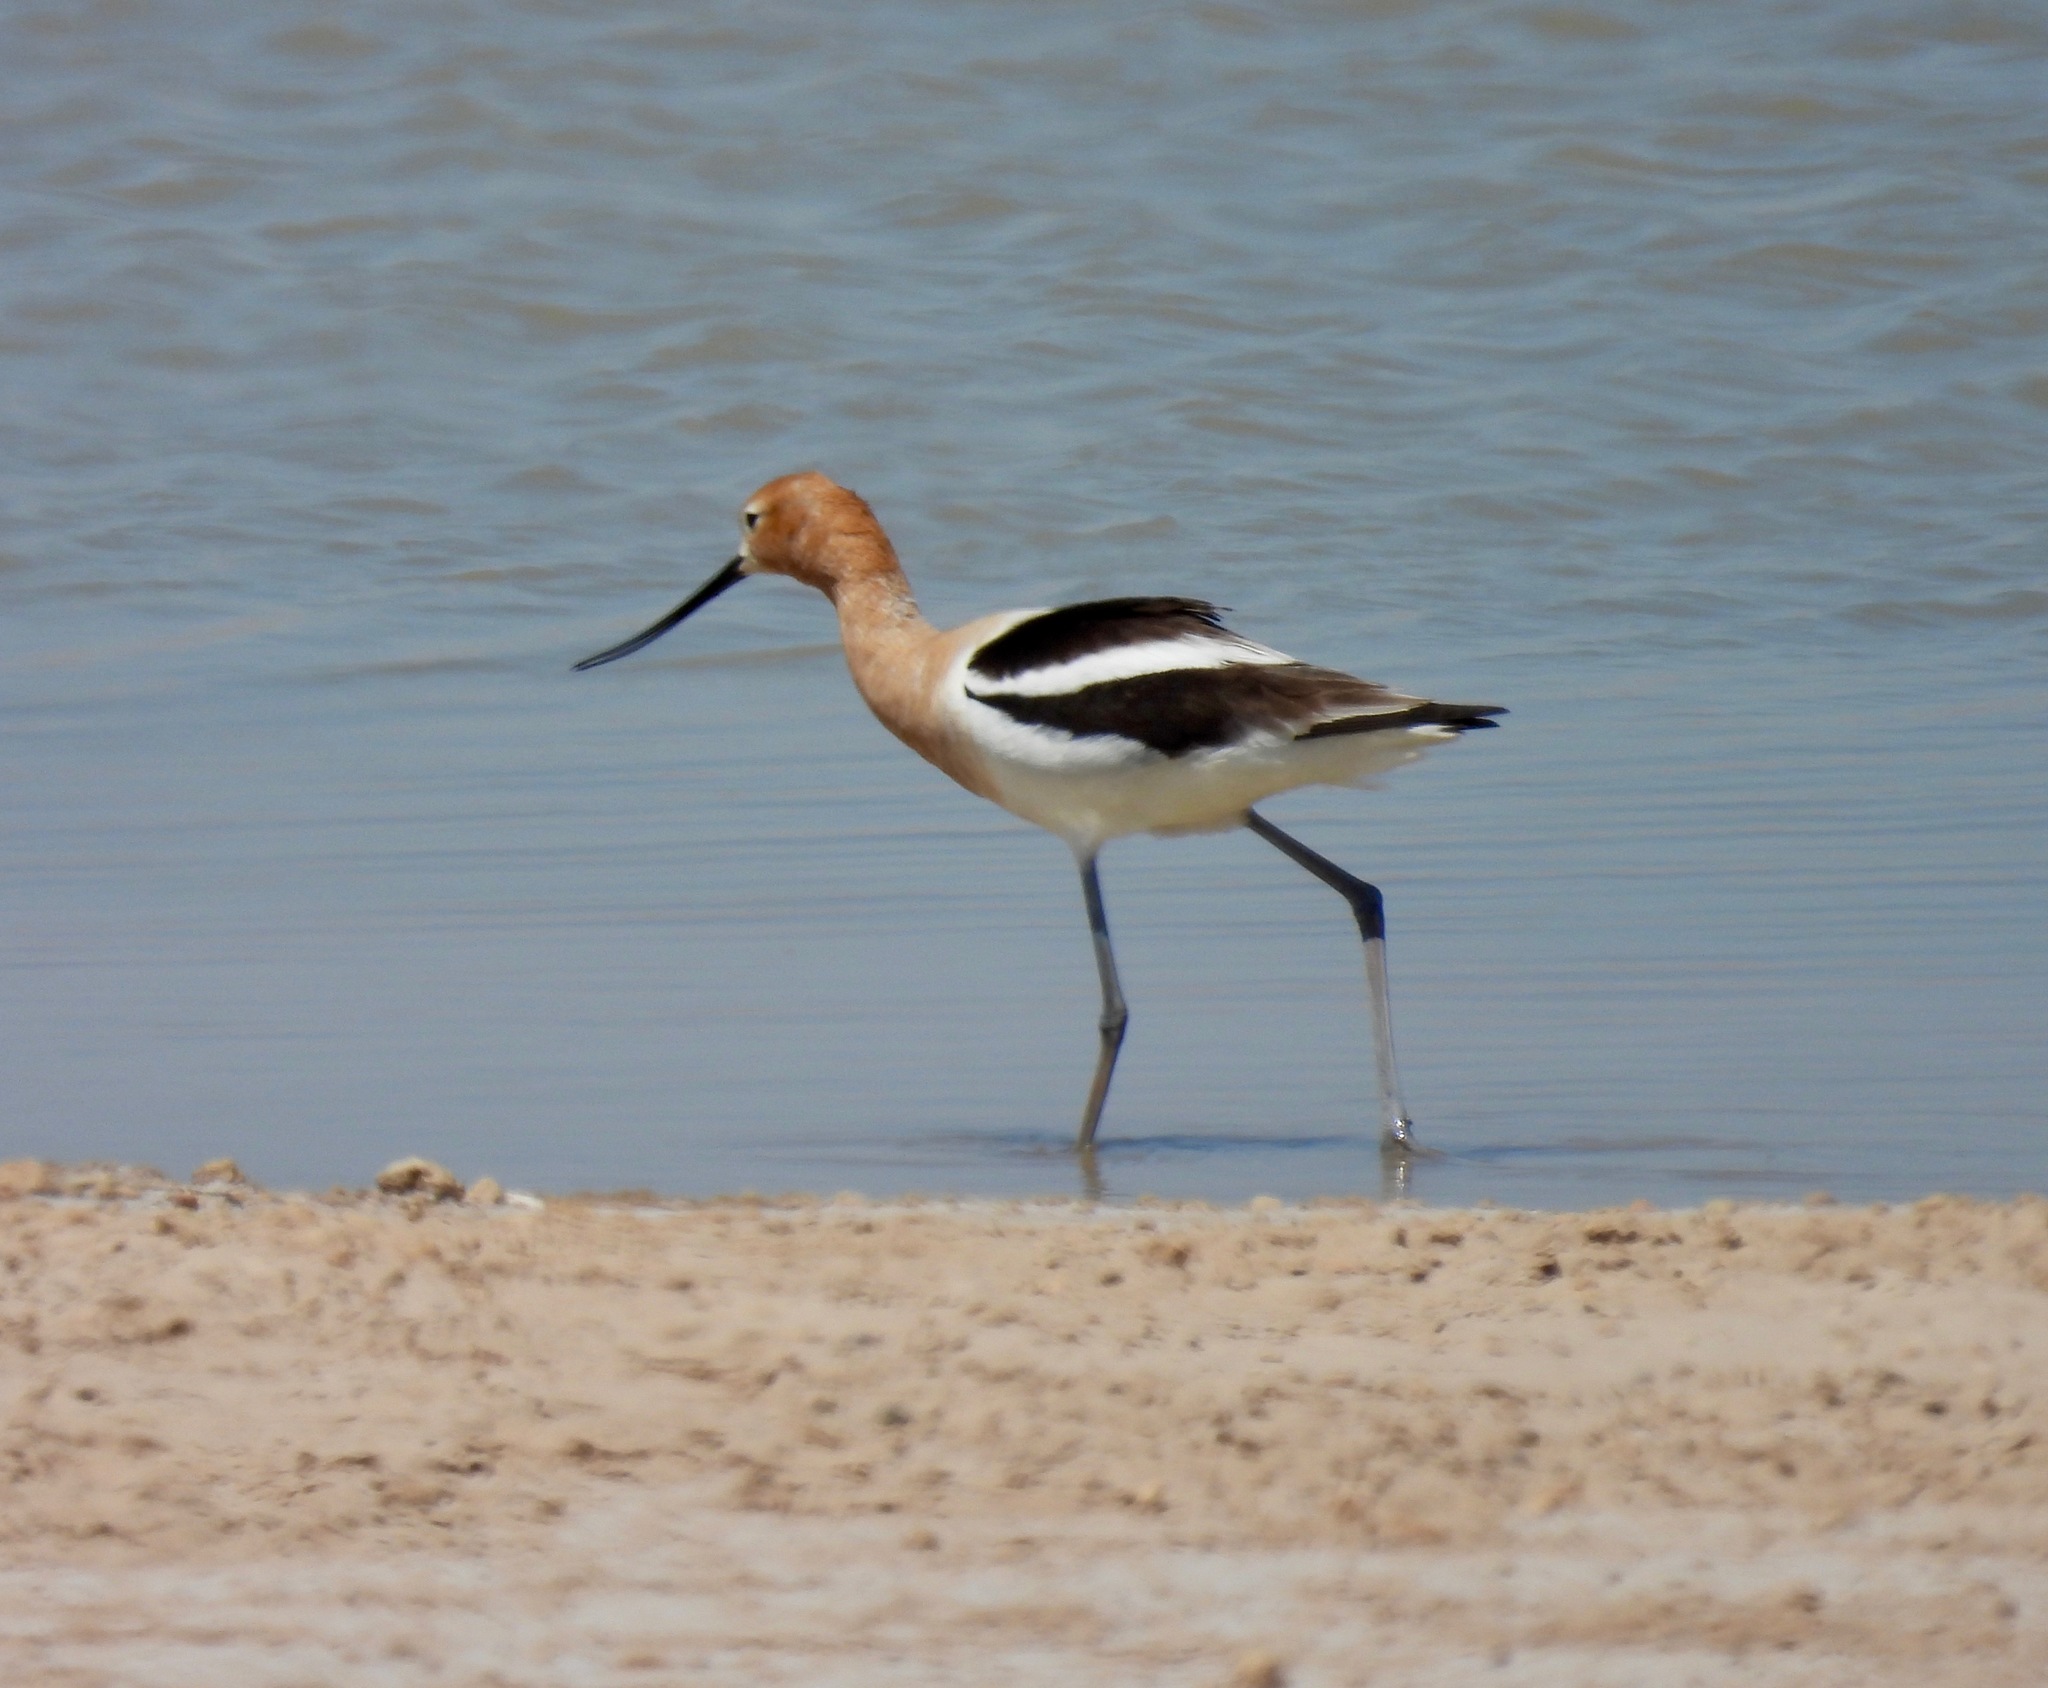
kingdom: Animalia
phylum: Chordata
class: Aves
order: Charadriiformes
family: Recurvirostridae
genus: Recurvirostra
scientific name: Recurvirostra americana
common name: American avocet
